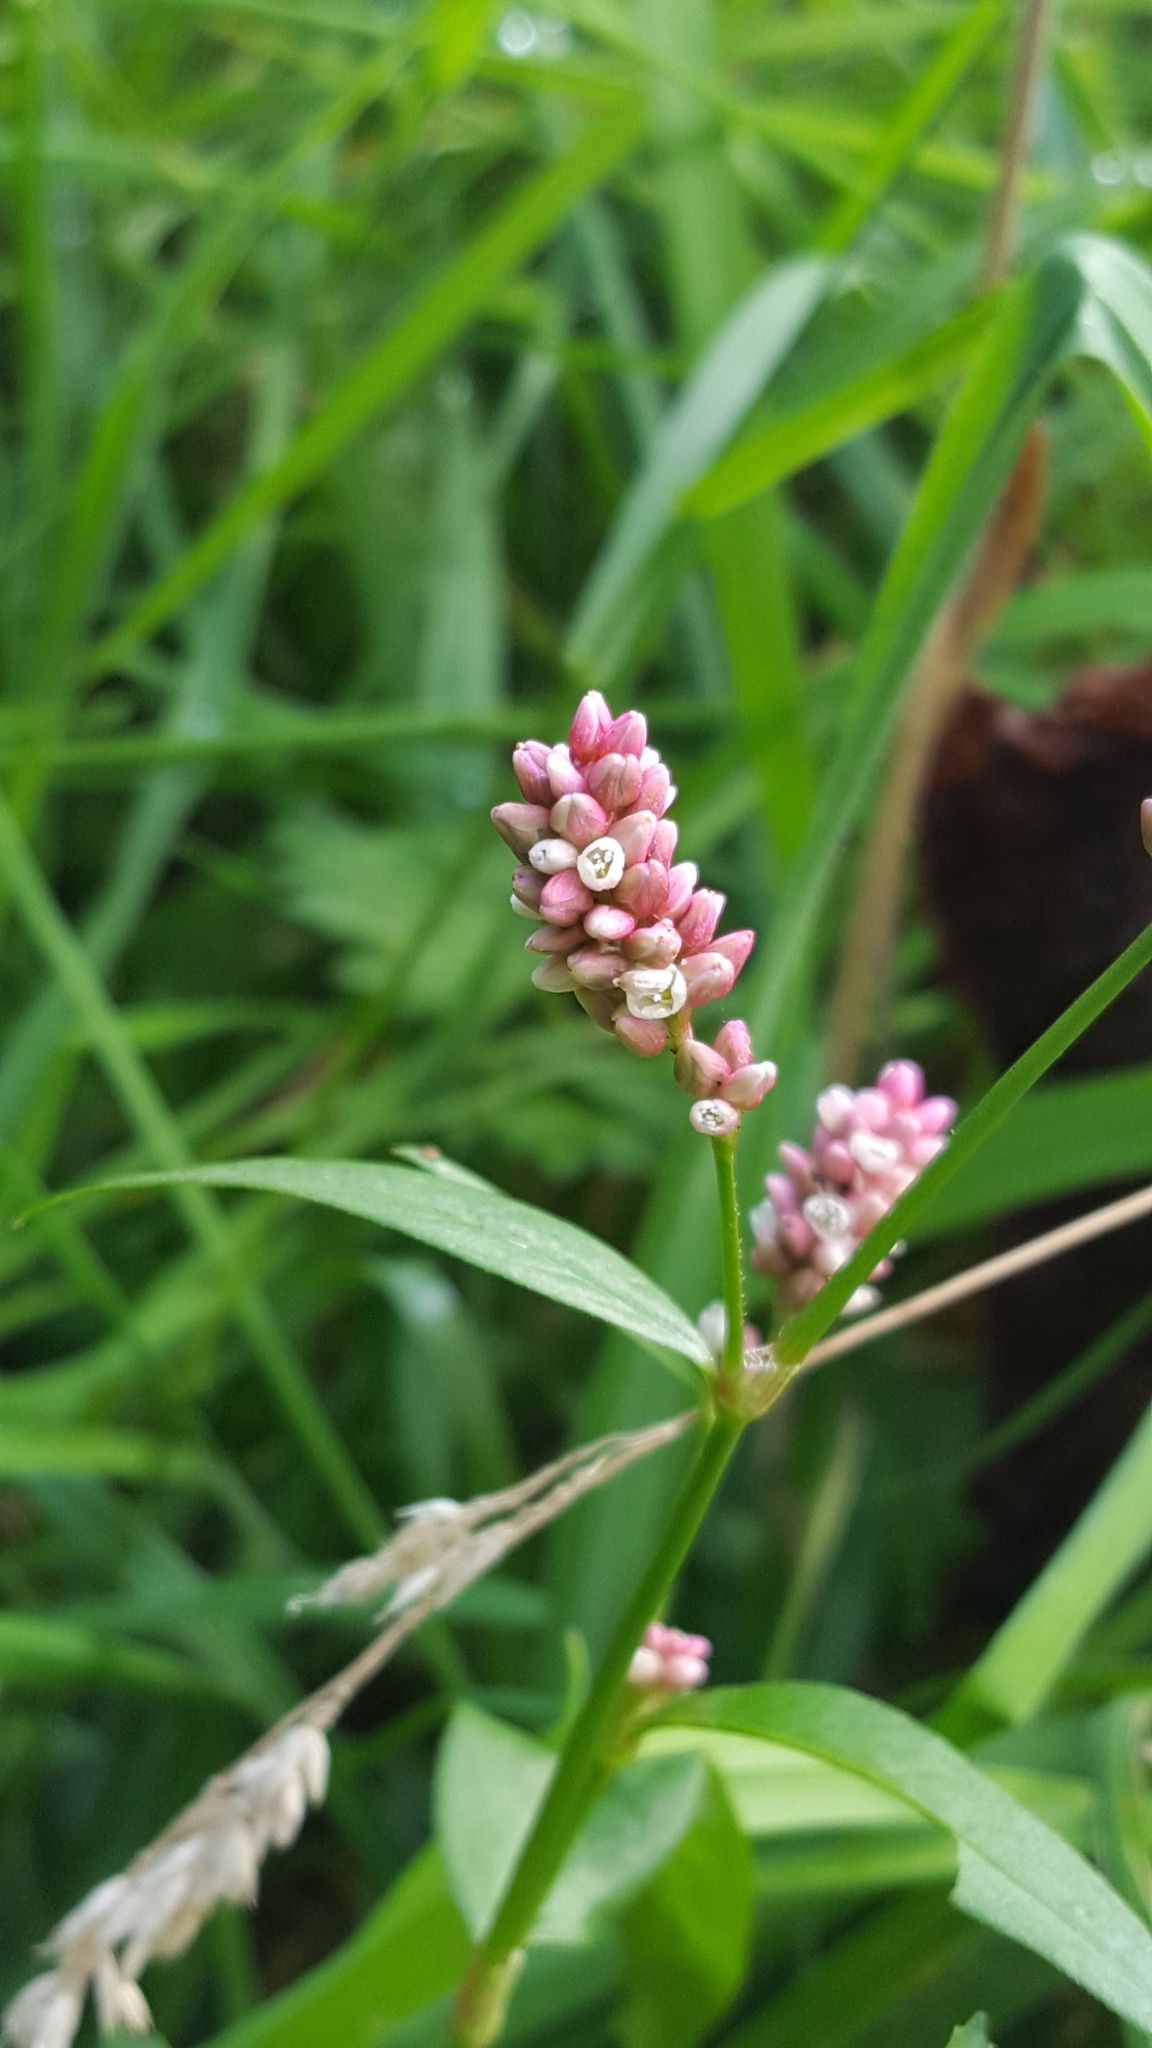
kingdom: Plantae
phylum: Tracheophyta
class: Magnoliopsida
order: Caryophyllales
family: Polygonaceae
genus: Persicaria
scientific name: Persicaria maculosa
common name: Redshank
